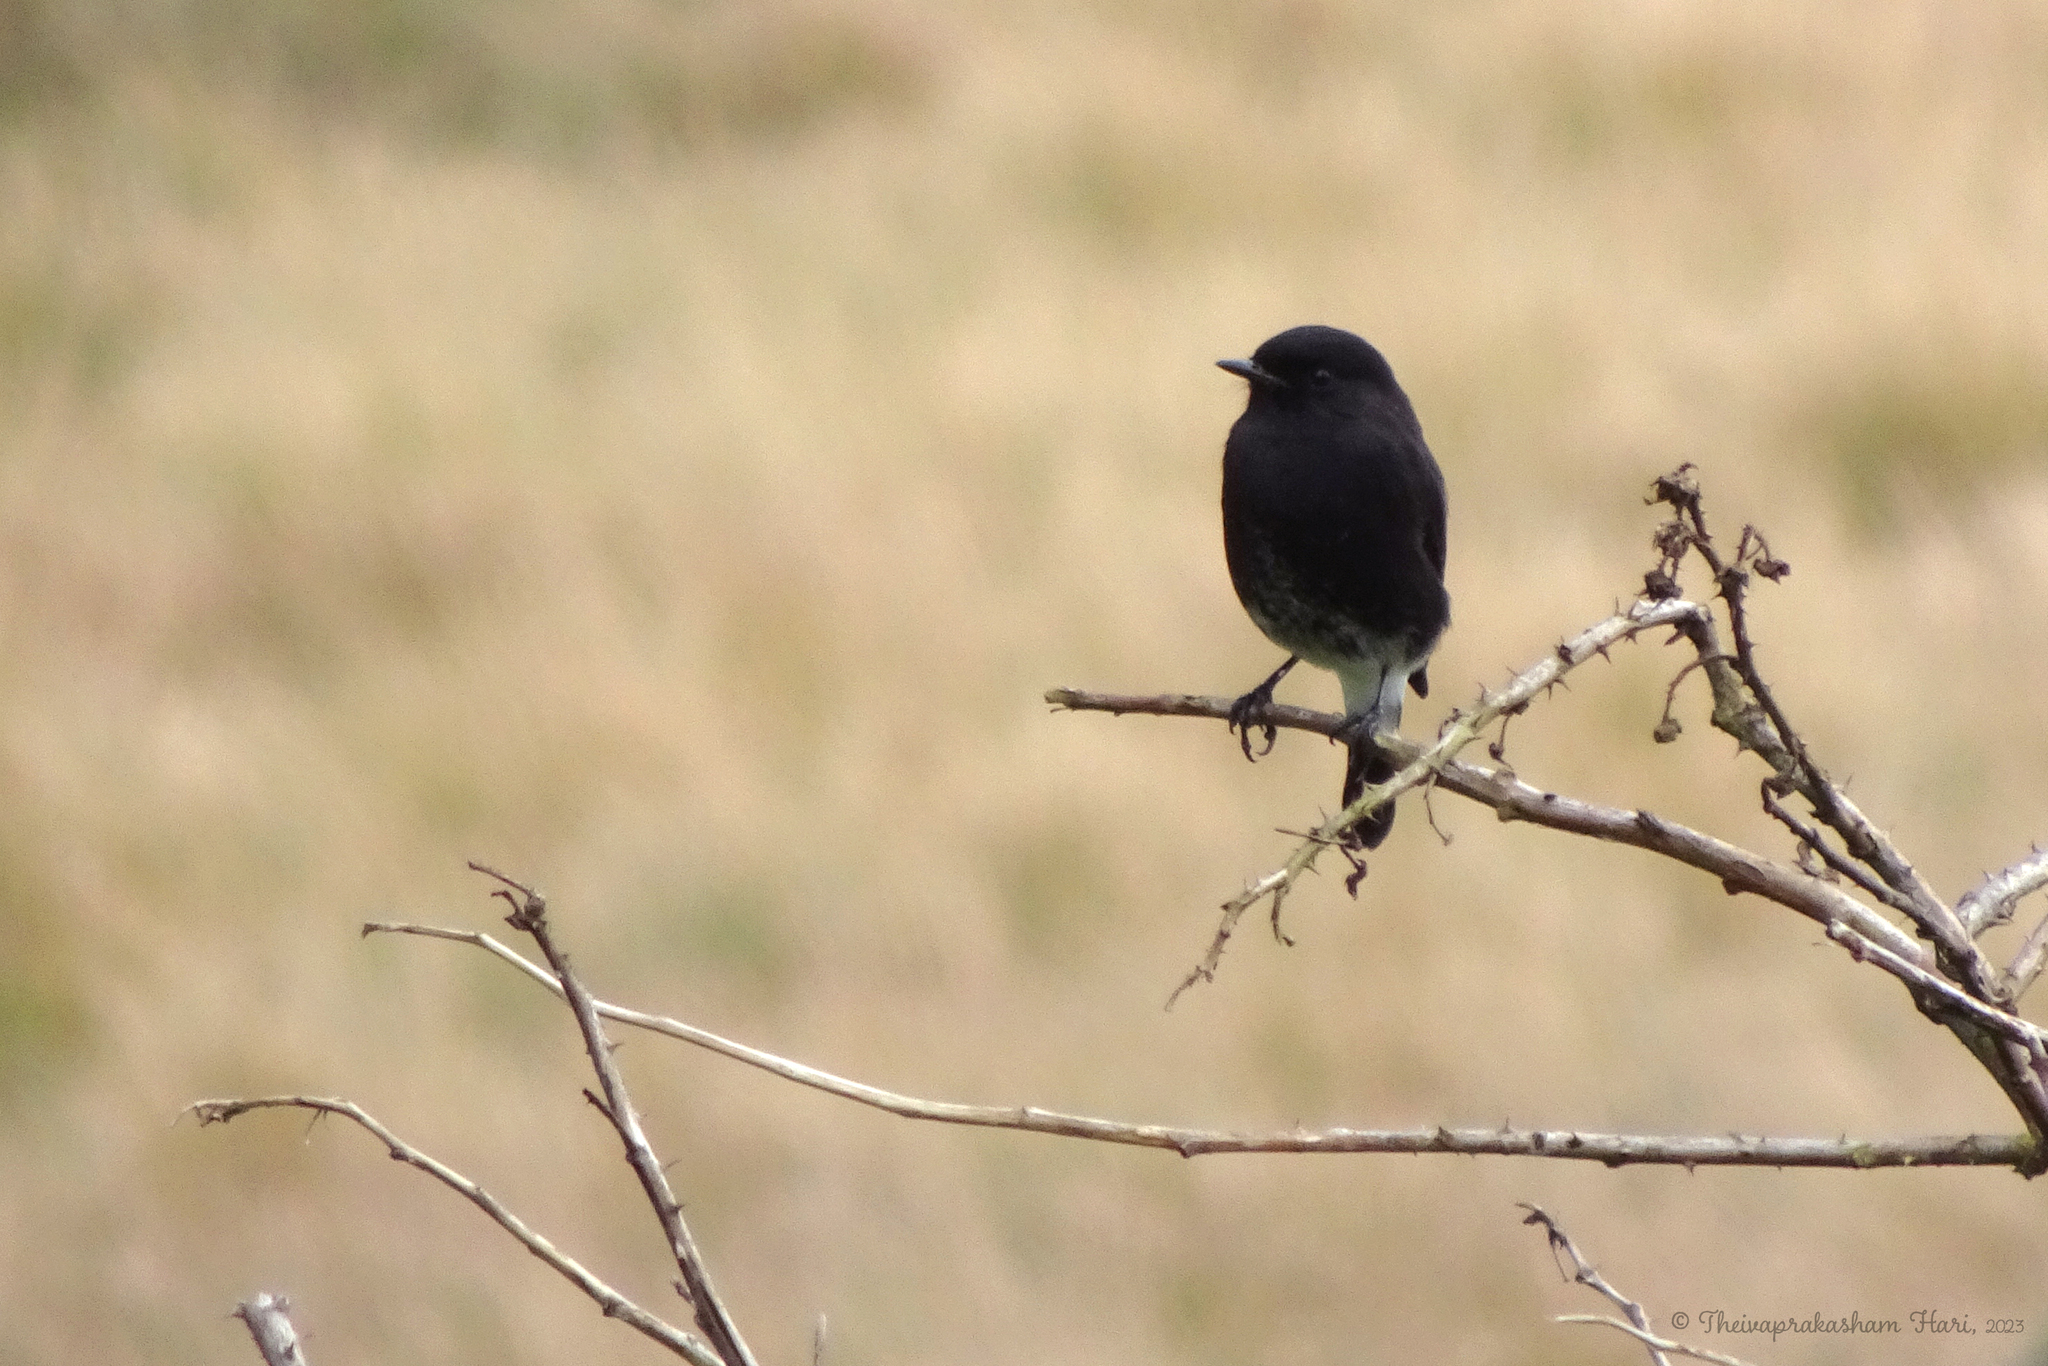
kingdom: Animalia
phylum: Chordata
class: Aves
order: Passeriformes
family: Muscicapidae
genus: Saxicola
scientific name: Saxicola caprata
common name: Pied bush chat
